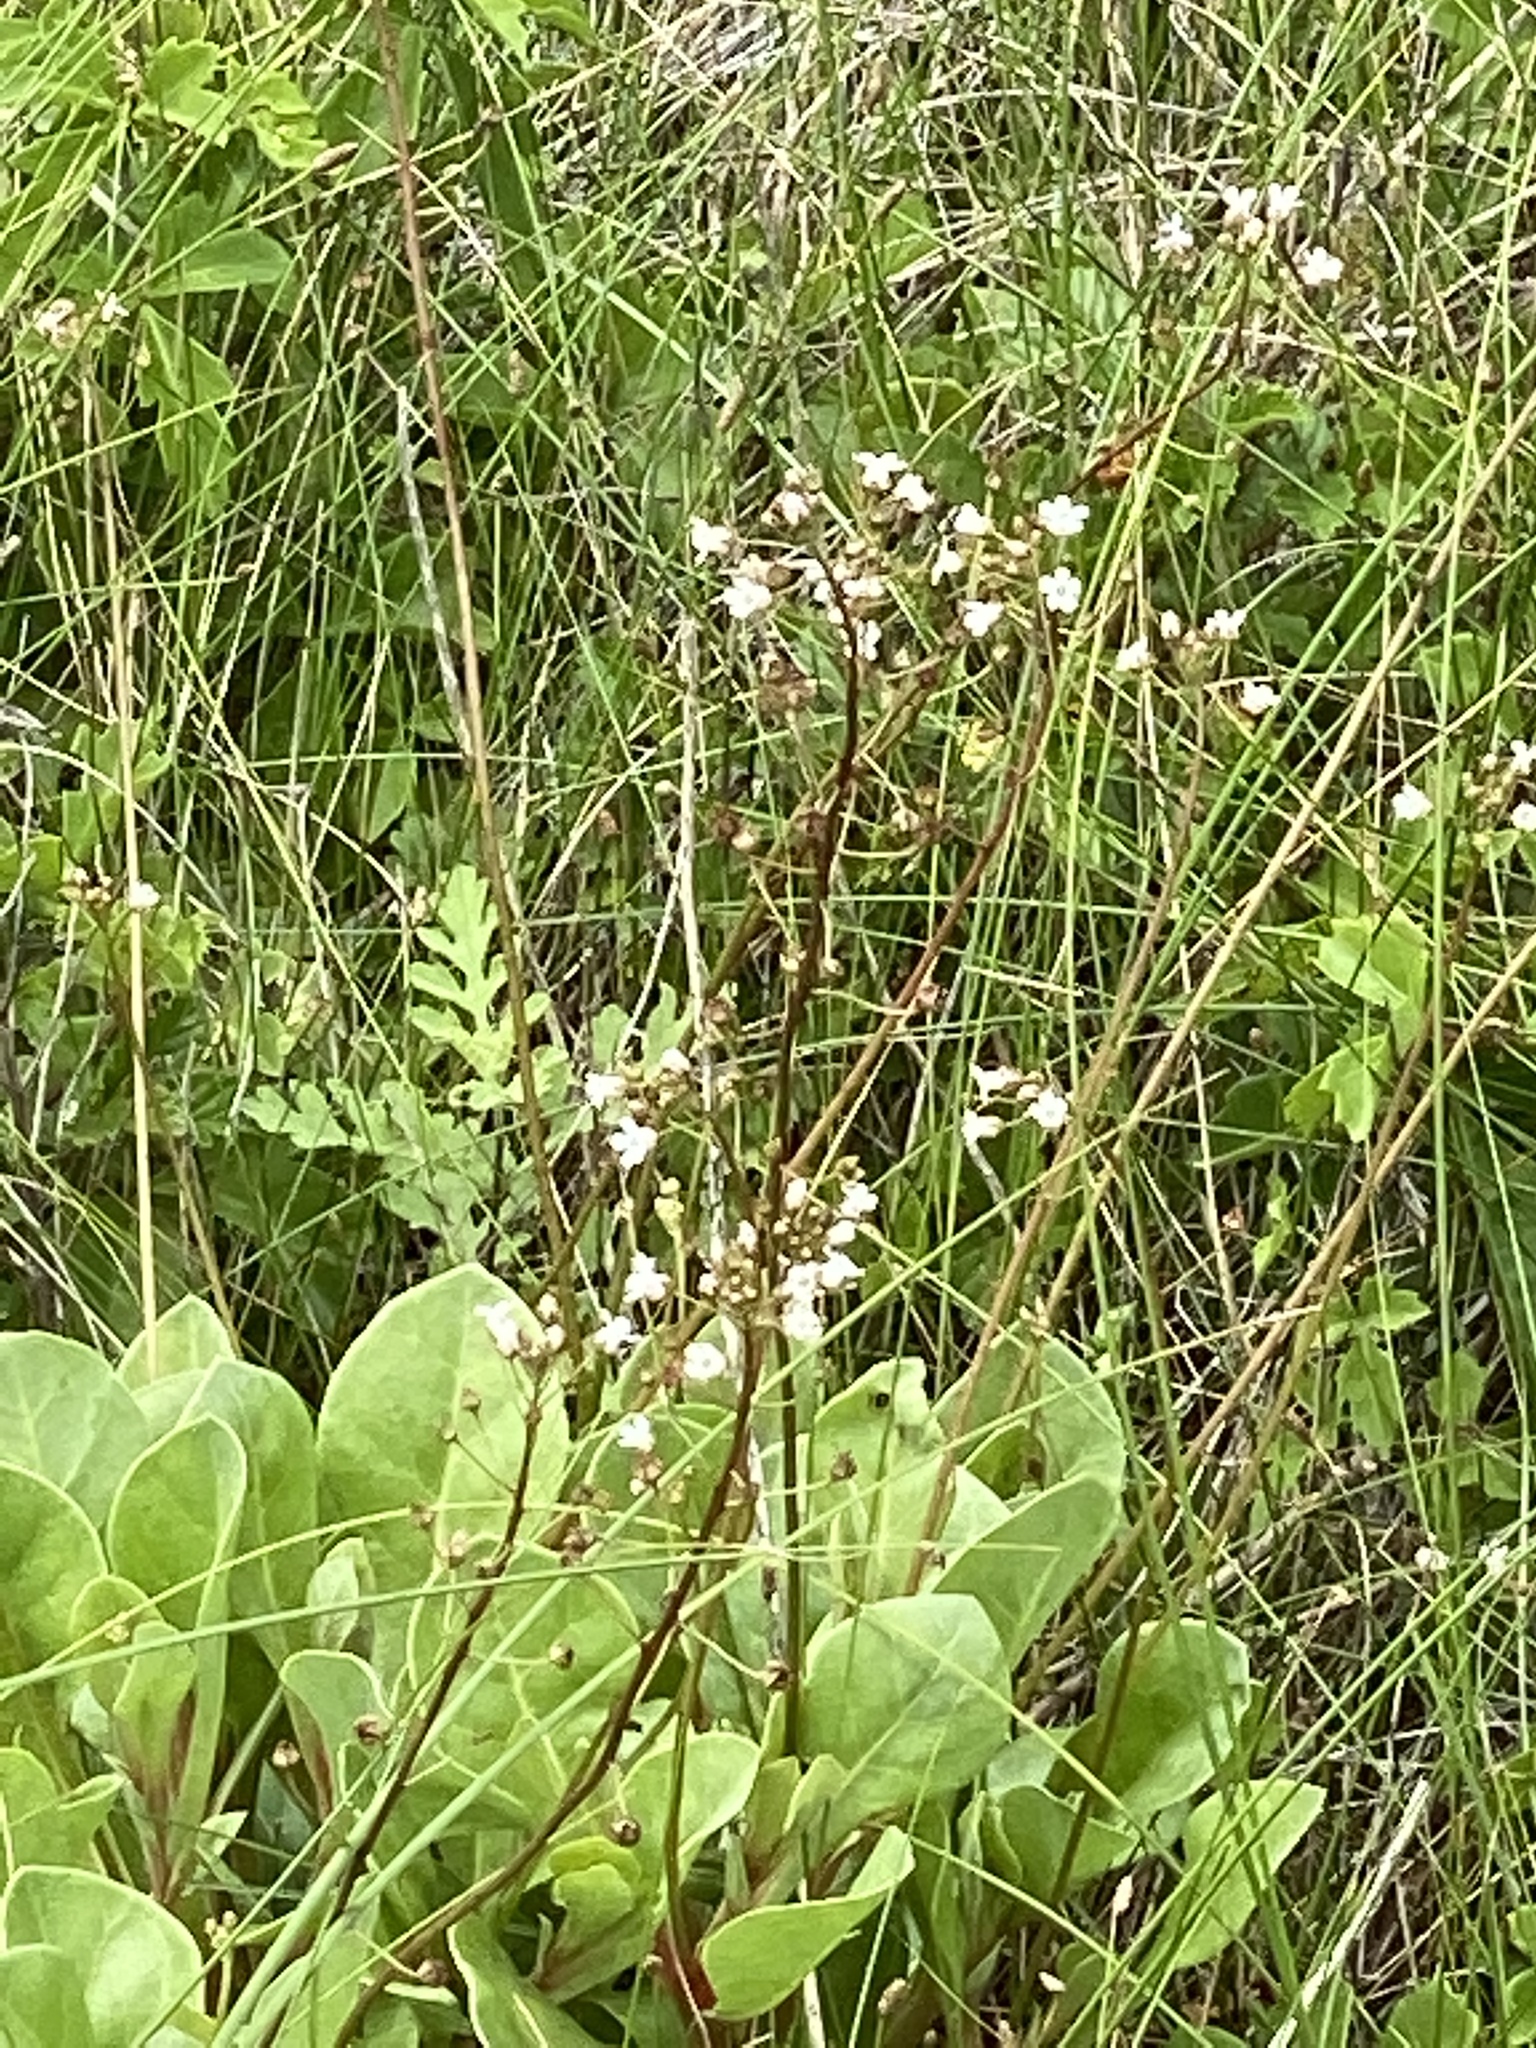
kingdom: Plantae
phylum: Tracheophyta
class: Magnoliopsida
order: Ericales
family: Primulaceae
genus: Samolus
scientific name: Samolus ebracteatus
